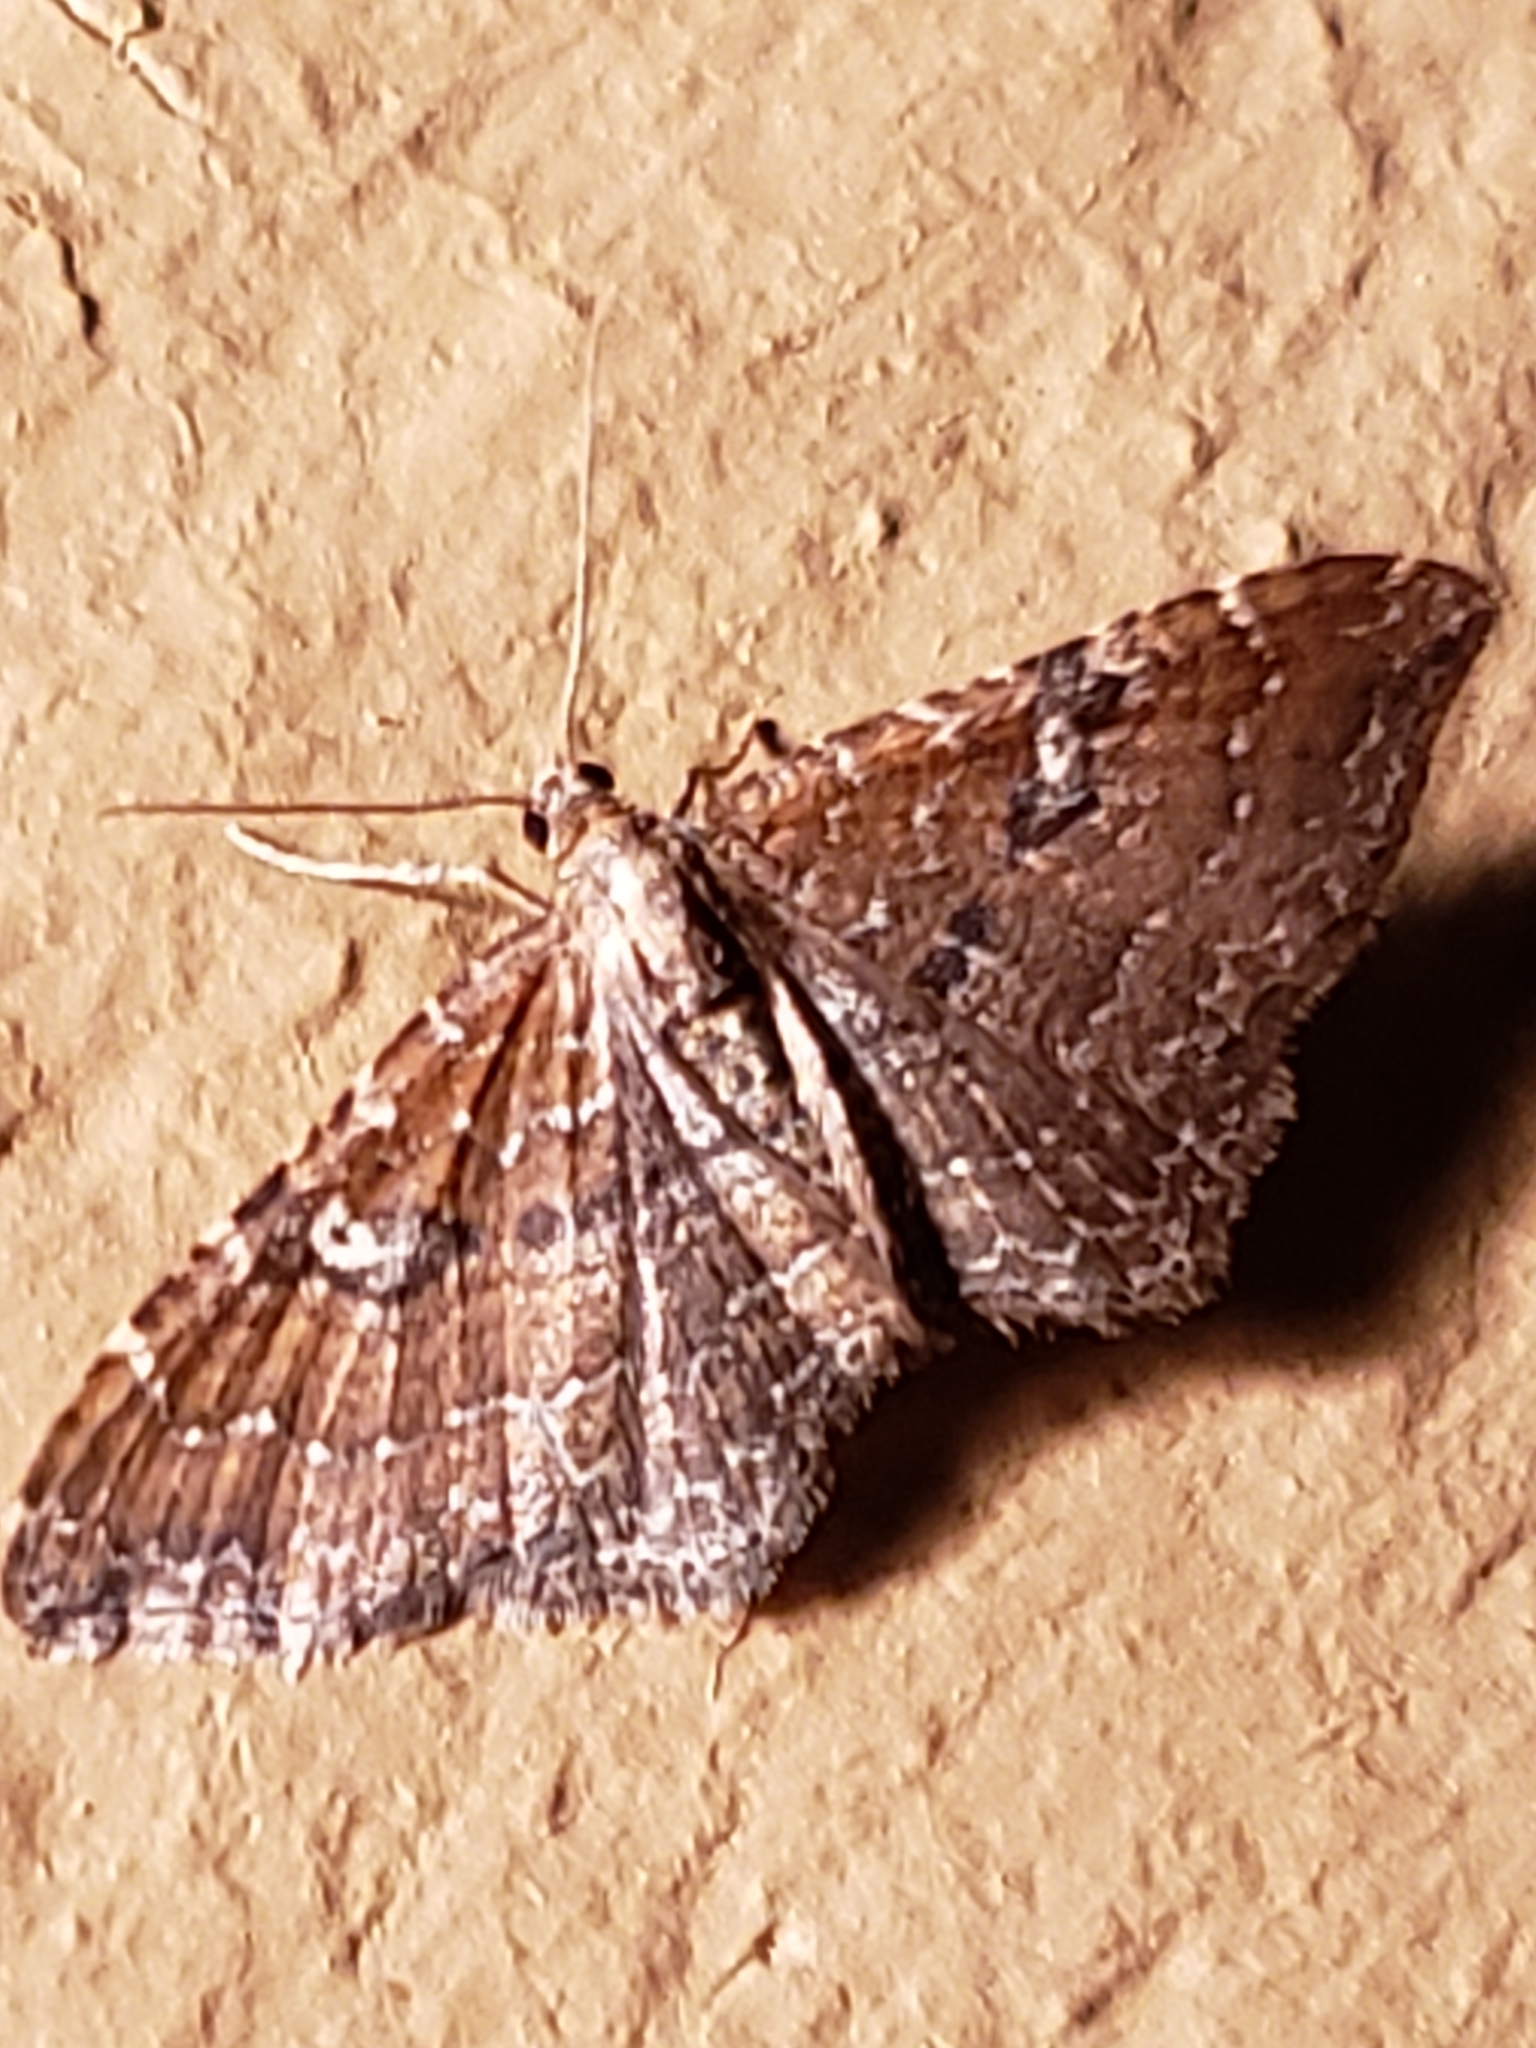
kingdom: Animalia
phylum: Arthropoda
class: Insecta
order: Lepidoptera
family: Geometridae
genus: Orthonama
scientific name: Orthonama obstipata
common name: The gem
